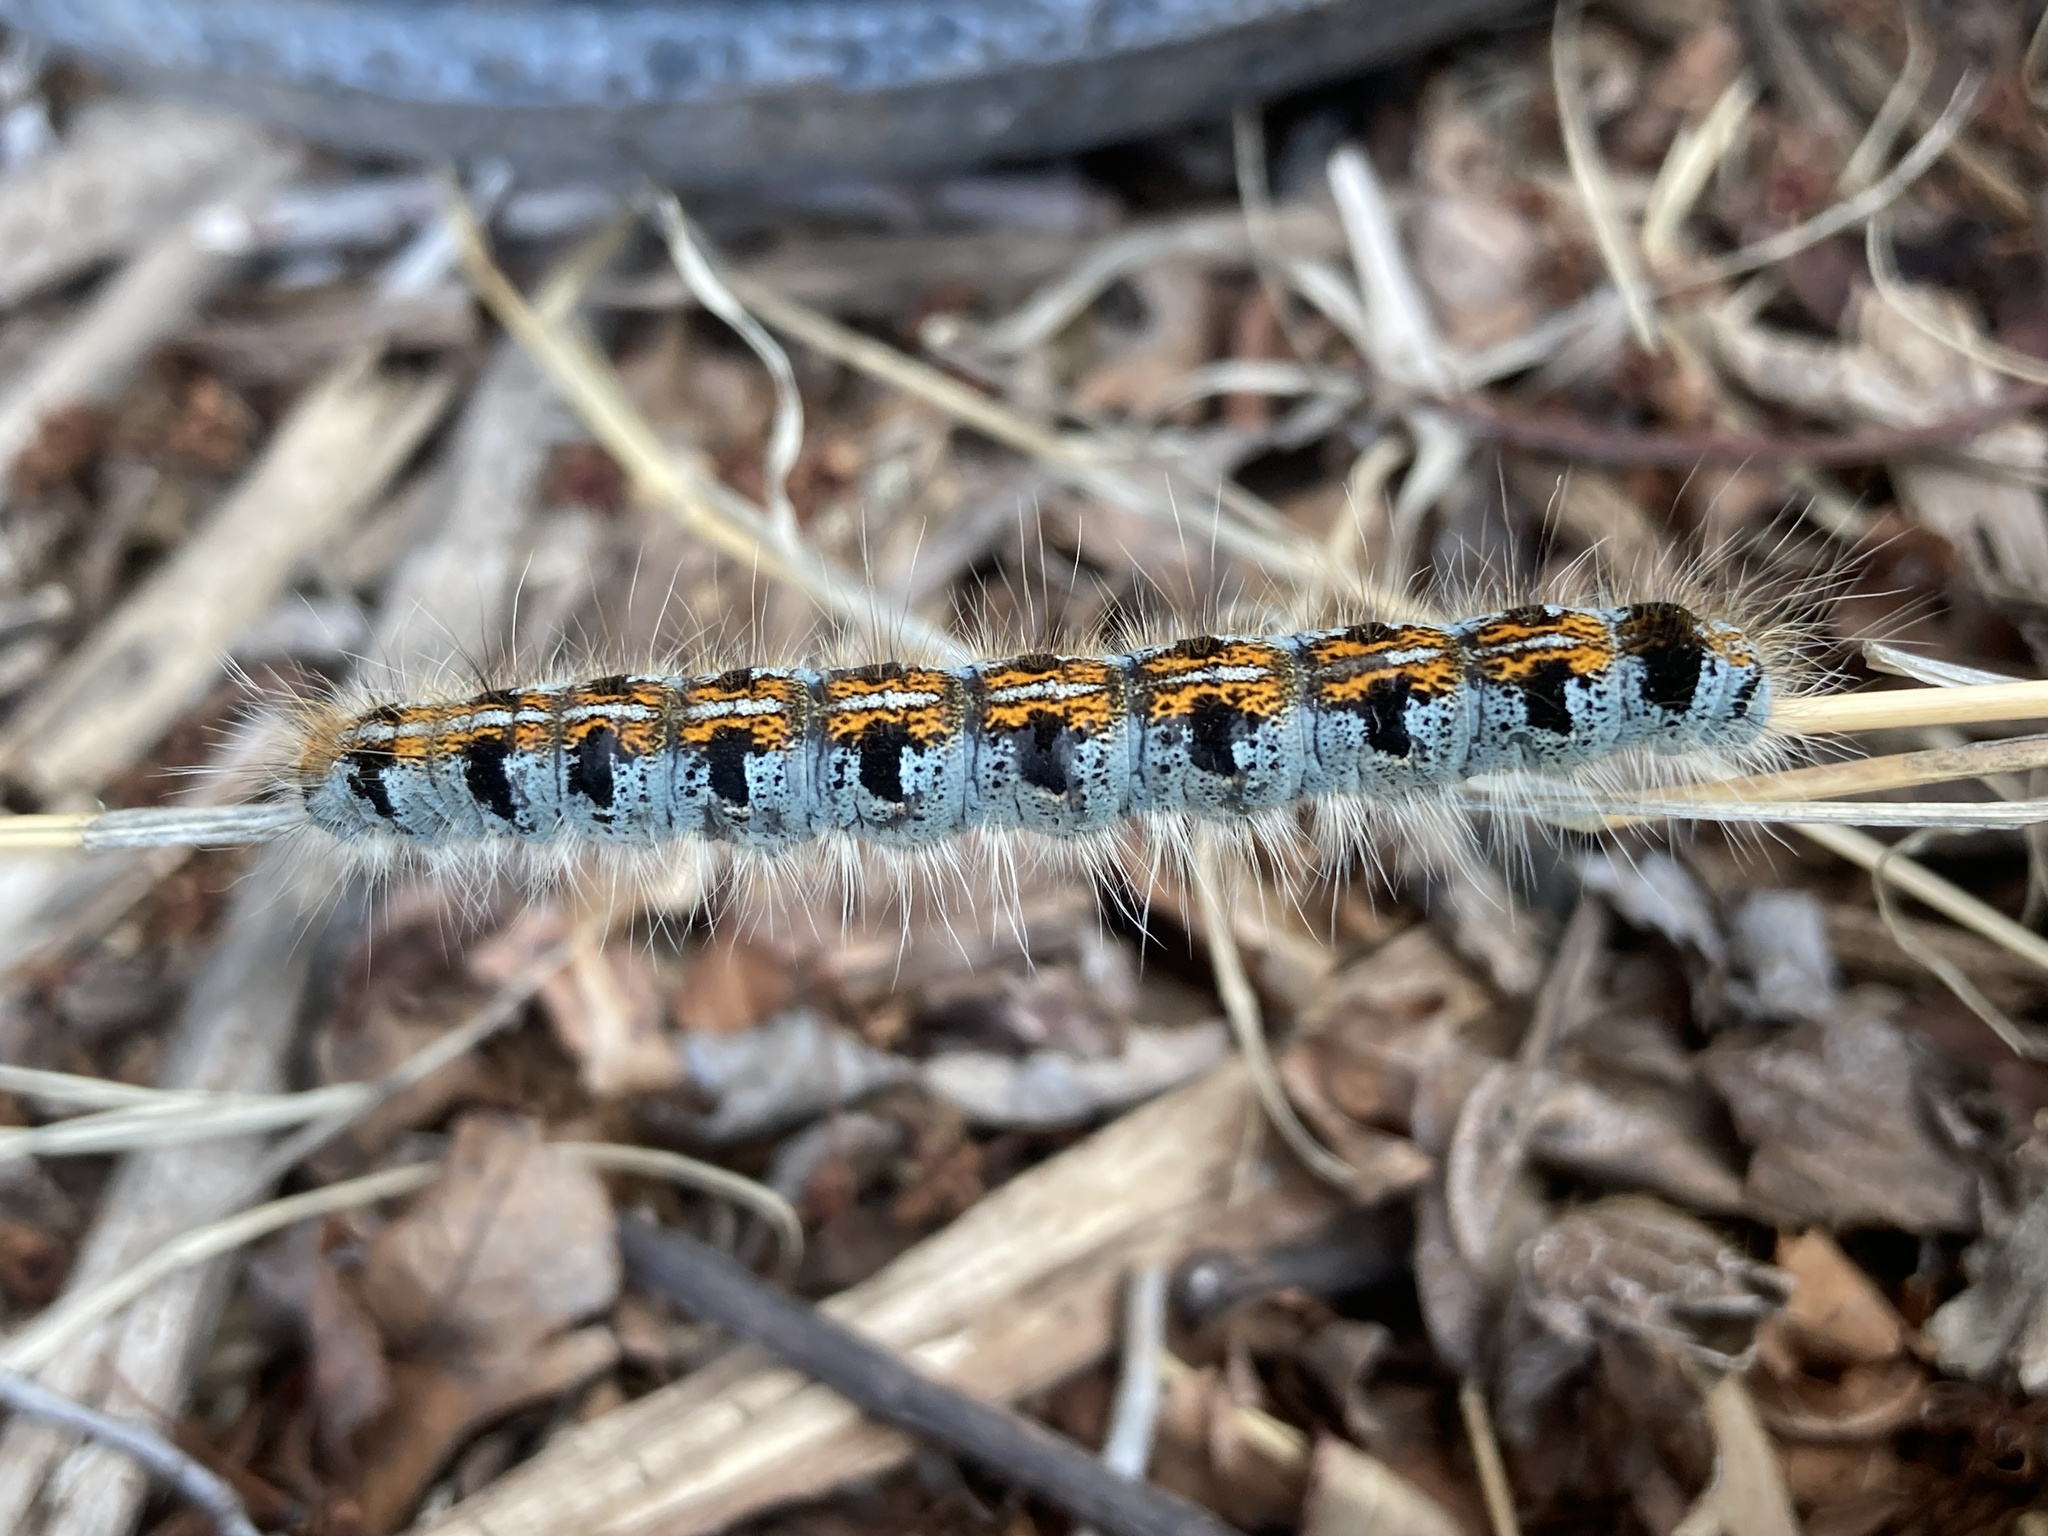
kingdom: Animalia
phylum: Arthropoda
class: Insecta
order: Lepidoptera
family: Lasiocampidae
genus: Malacosoma
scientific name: Malacosoma californica
